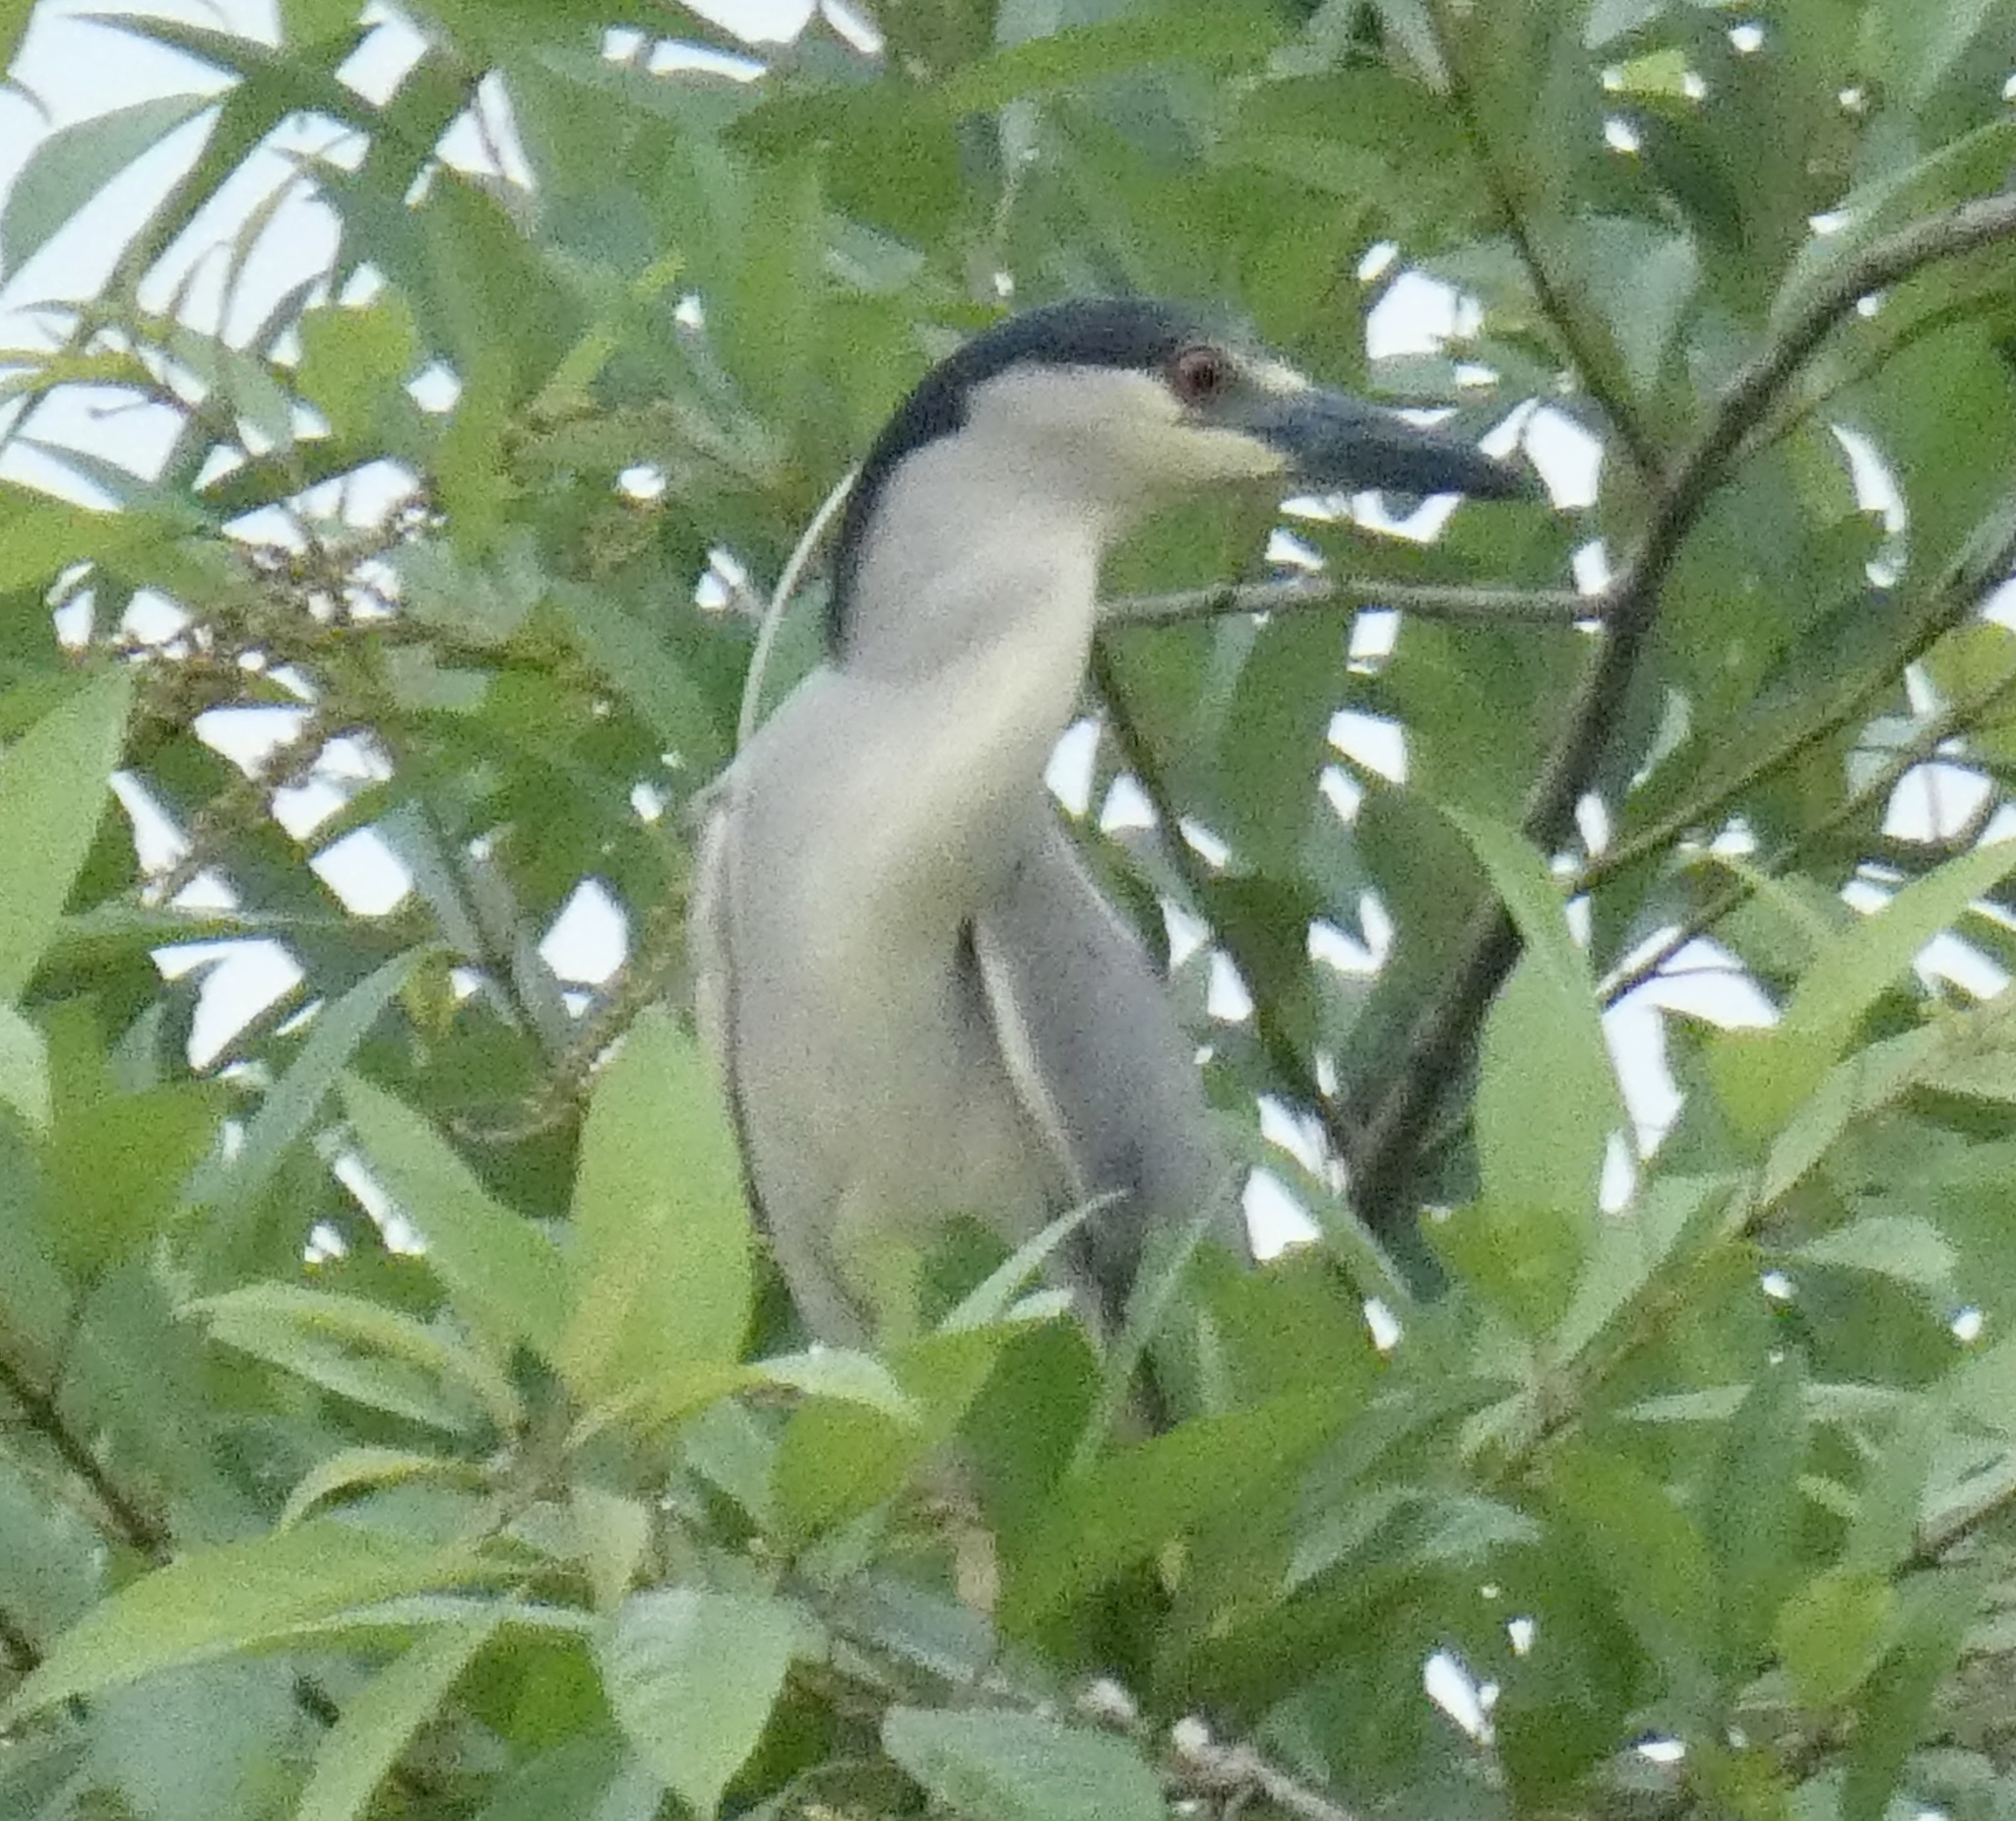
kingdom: Animalia
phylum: Chordata
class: Aves
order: Pelecaniformes
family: Ardeidae
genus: Nycticorax
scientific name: Nycticorax nycticorax
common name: Black-crowned night heron
